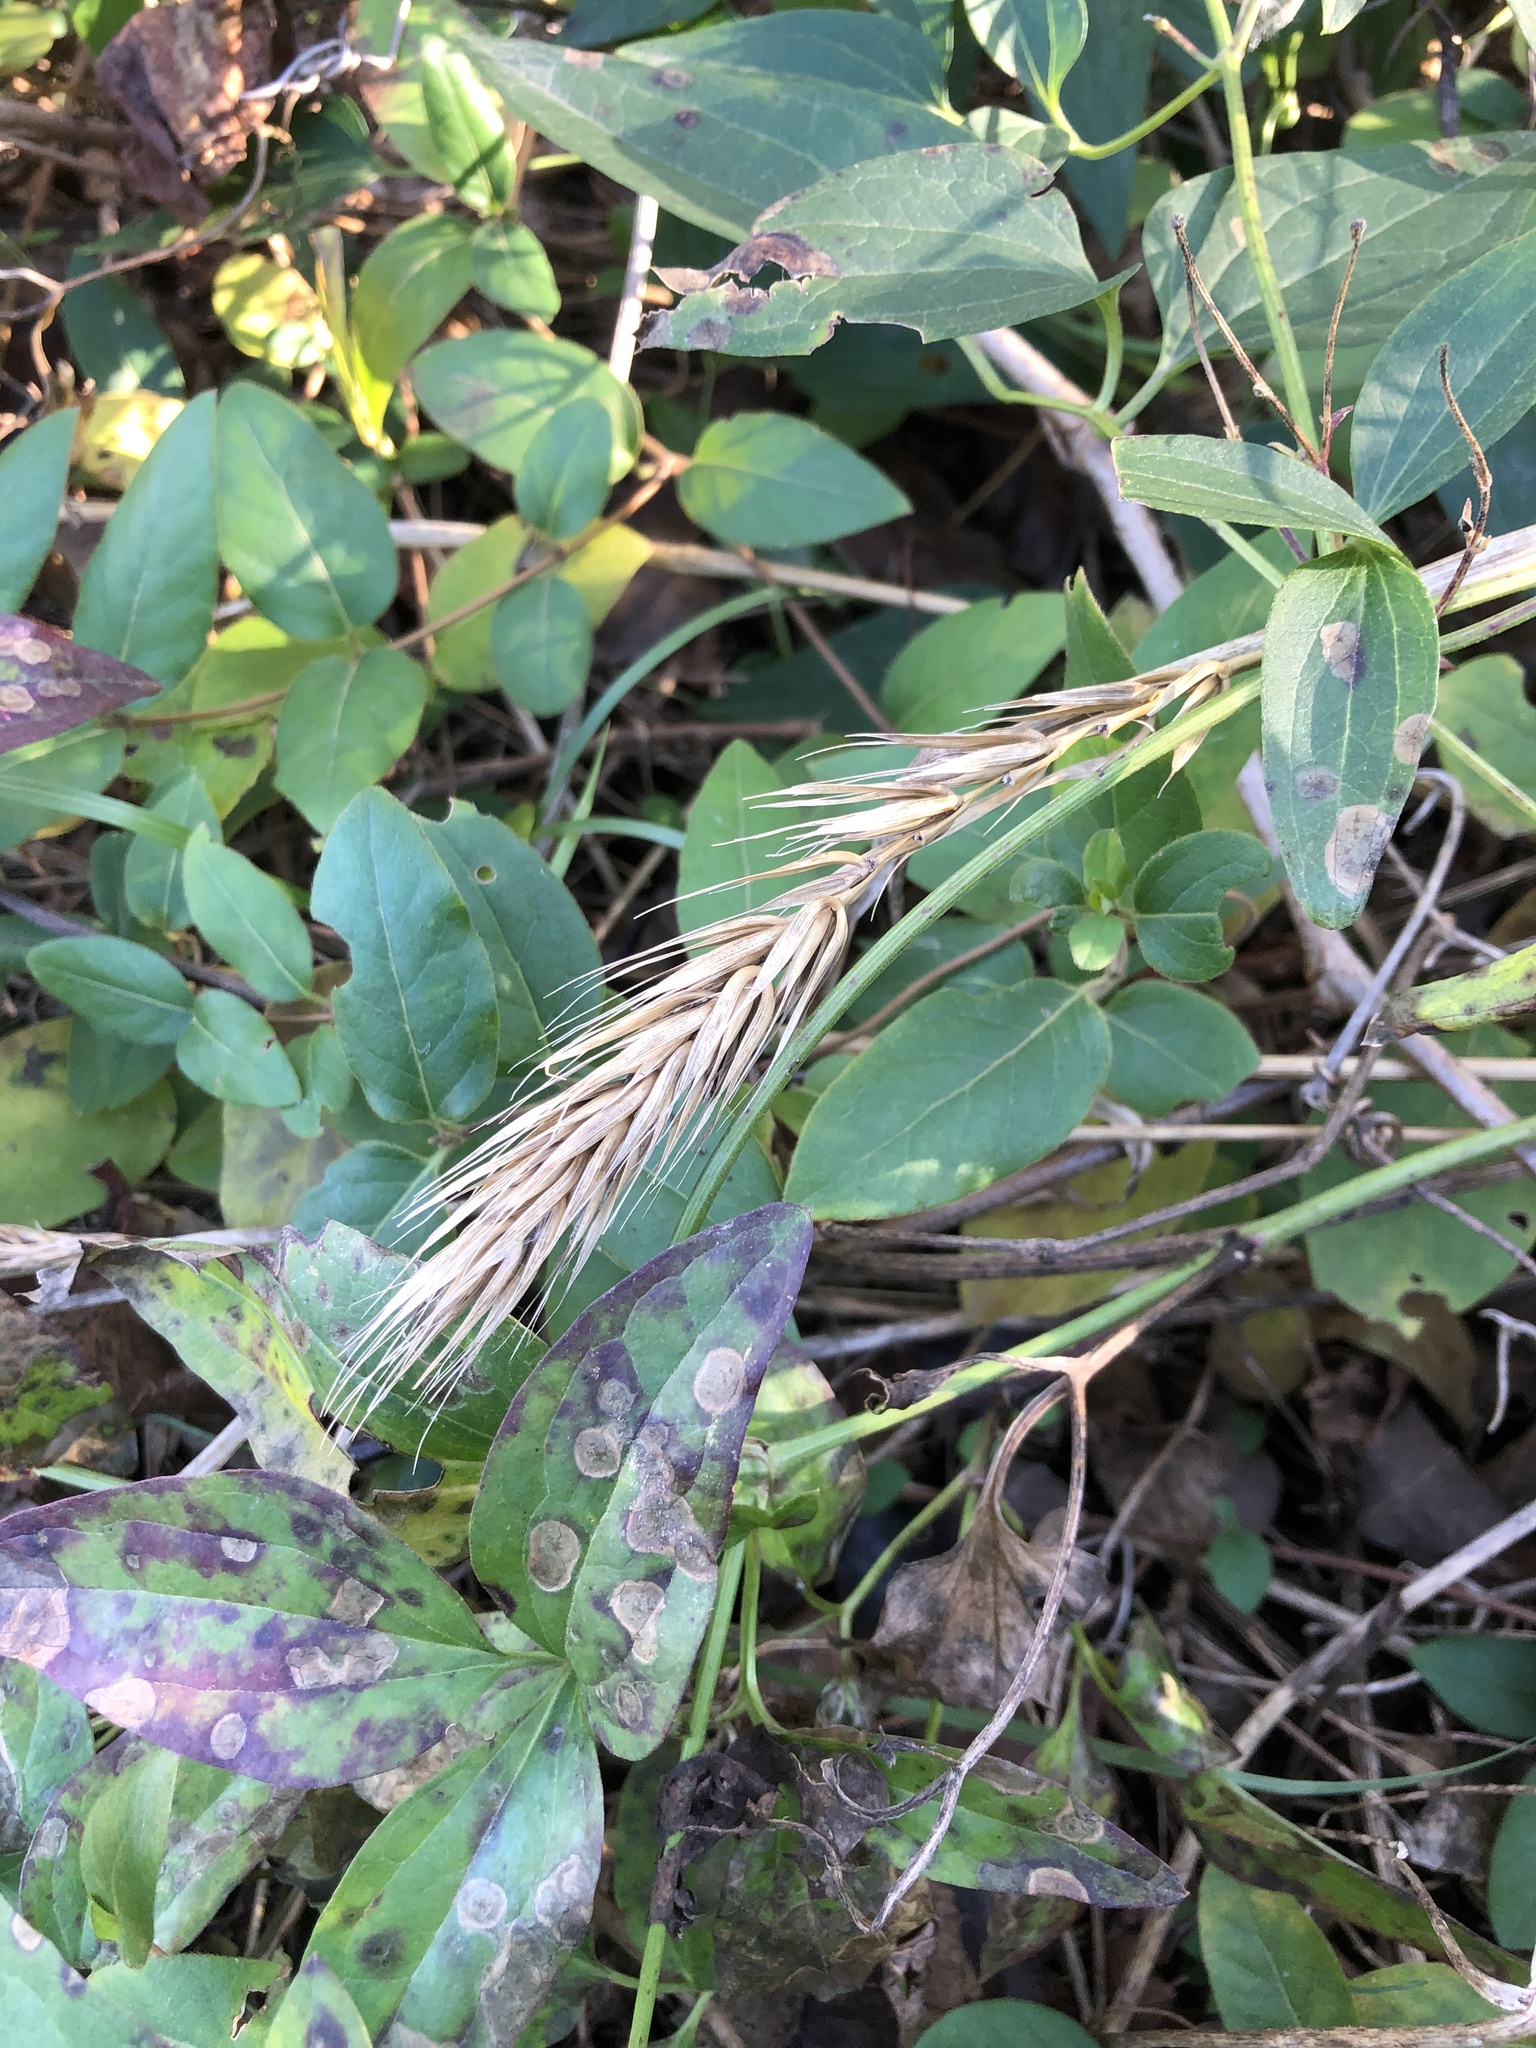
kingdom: Plantae
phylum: Tracheophyta
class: Liliopsida
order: Poales
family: Poaceae
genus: Elymus
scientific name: Elymus virginicus
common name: Common eastern wildrye
